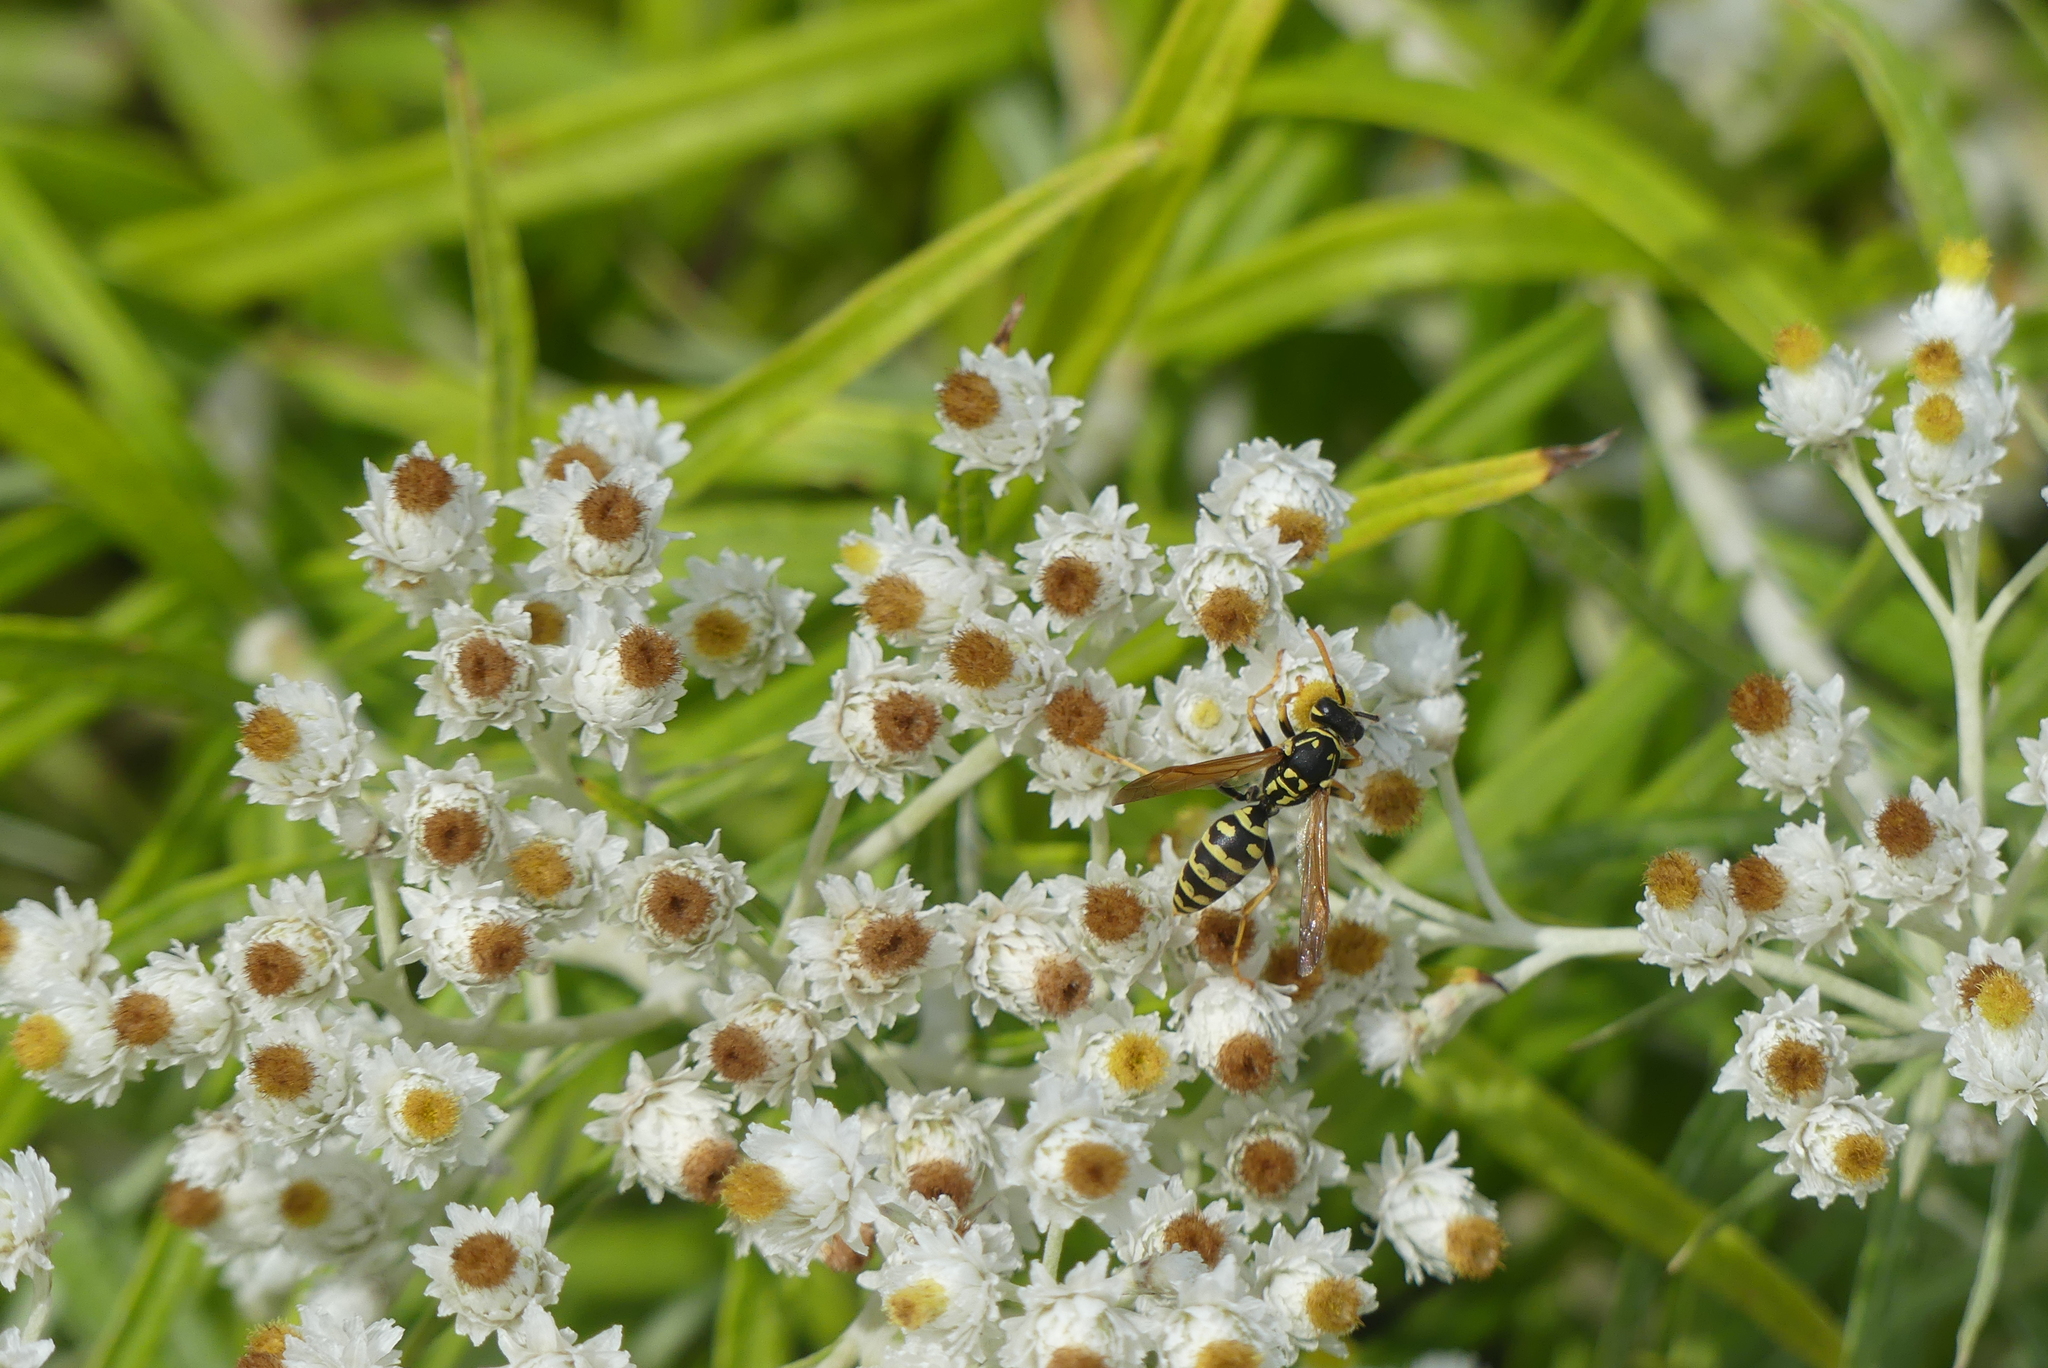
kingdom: Animalia
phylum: Arthropoda
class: Insecta
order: Hymenoptera
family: Eumenidae
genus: Polistes
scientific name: Polistes dominula
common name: Paper wasp
